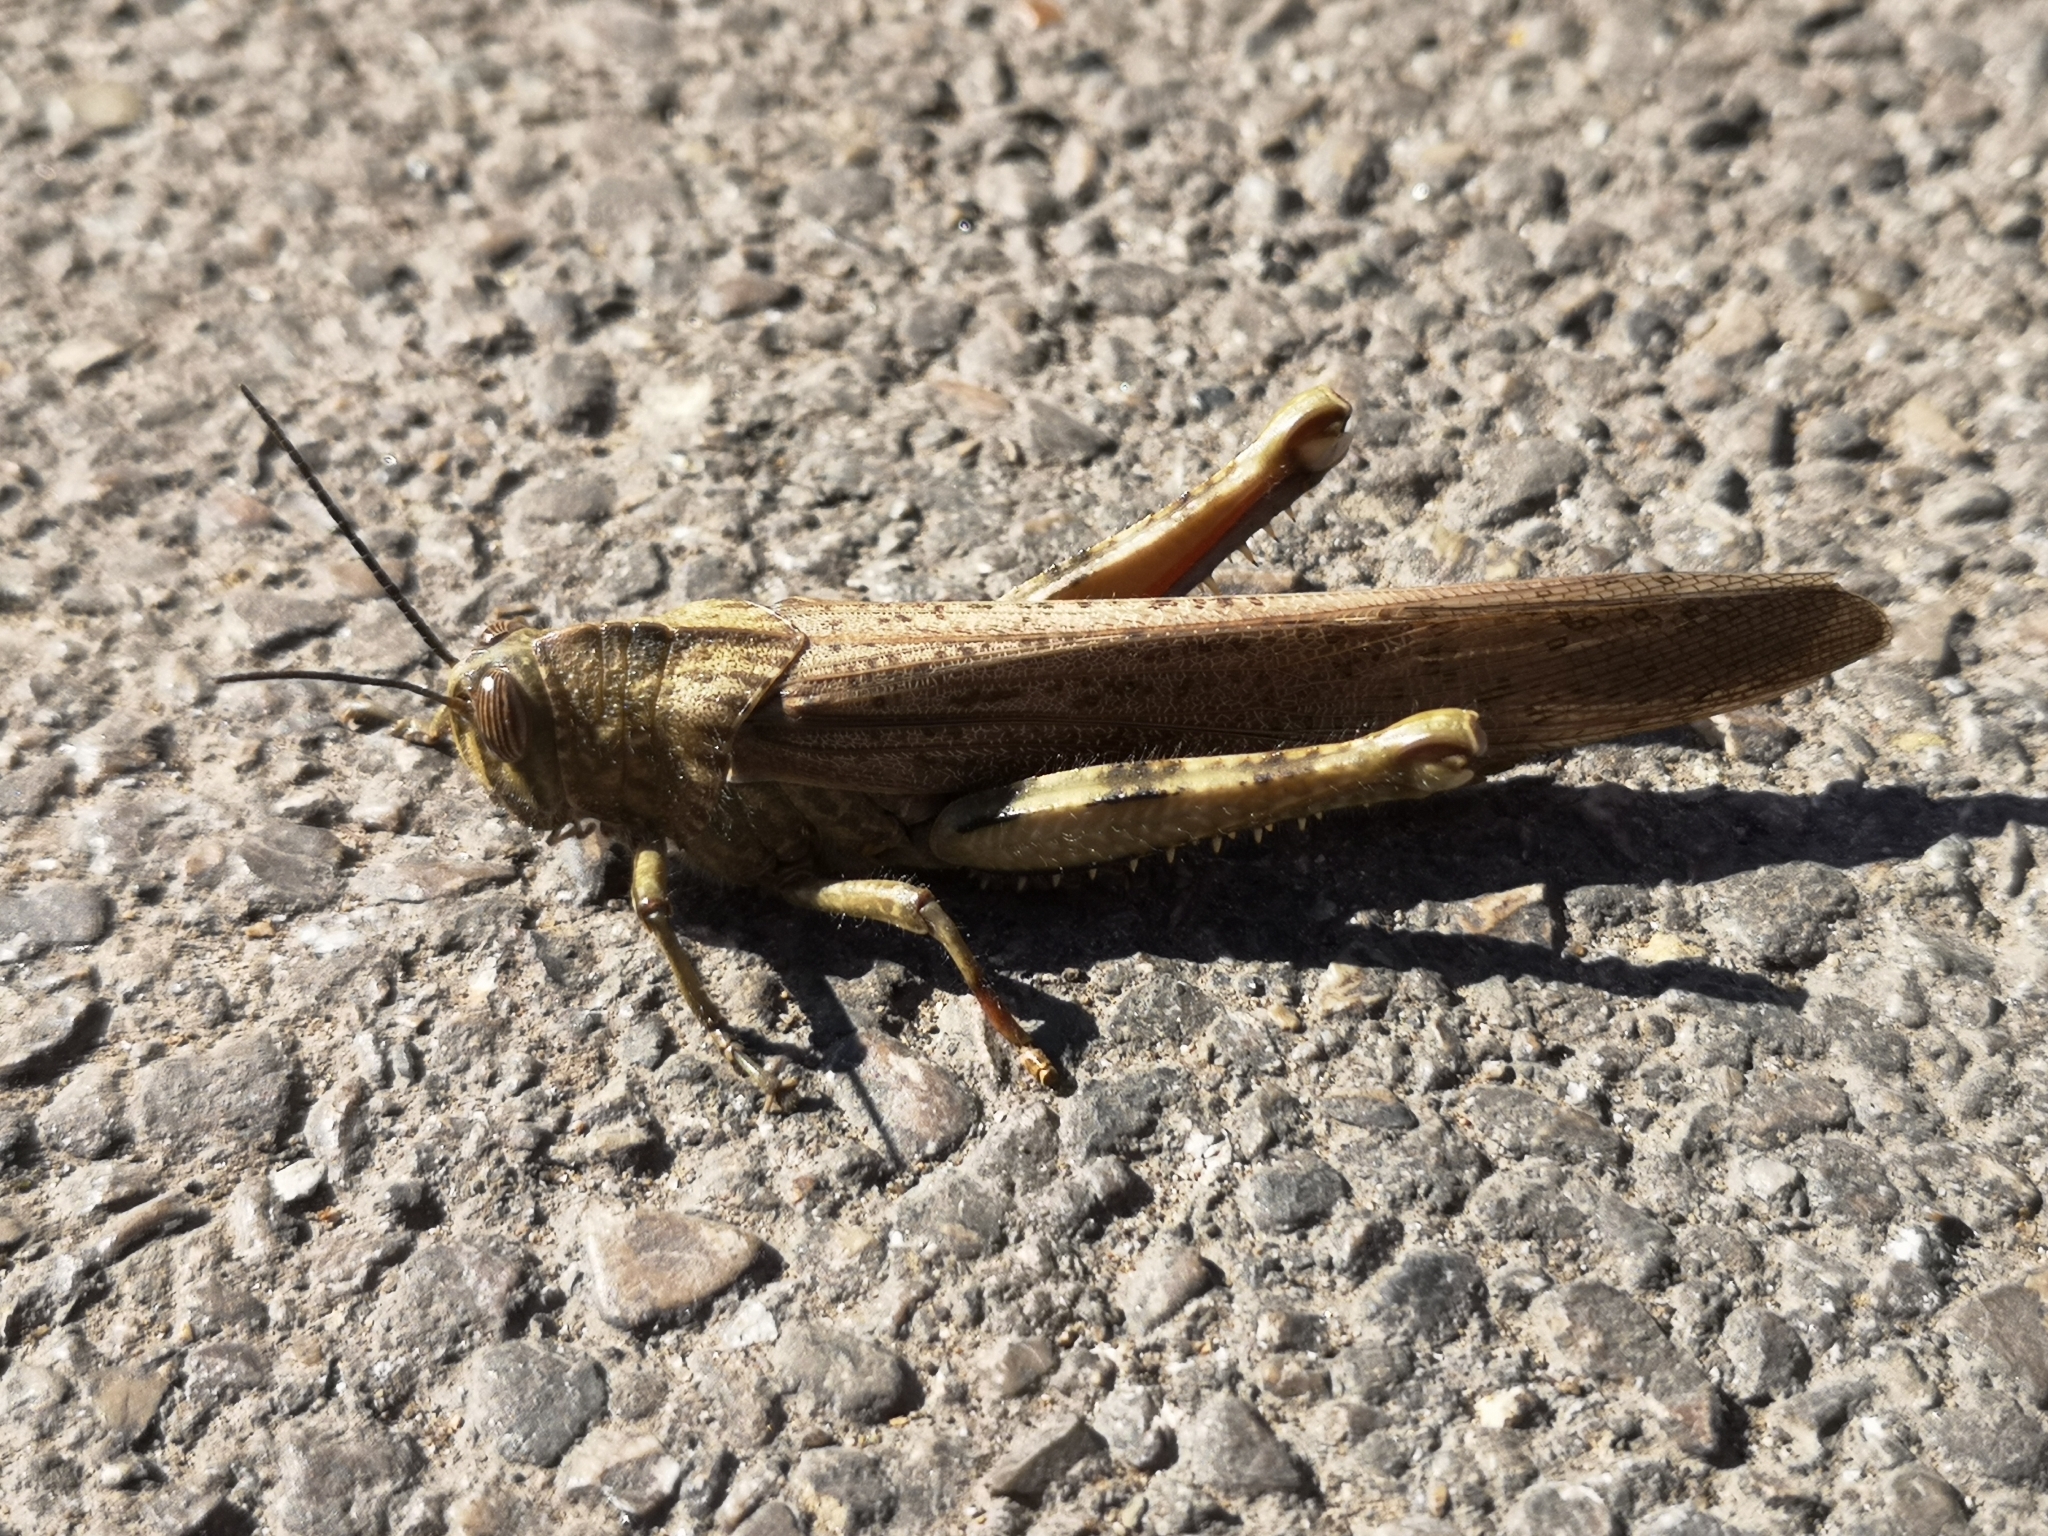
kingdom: Animalia
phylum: Arthropoda
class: Insecta
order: Orthoptera
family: Acrididae
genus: Anacridium
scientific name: Anacridium aegyptium
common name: Egyptian grasshopper
